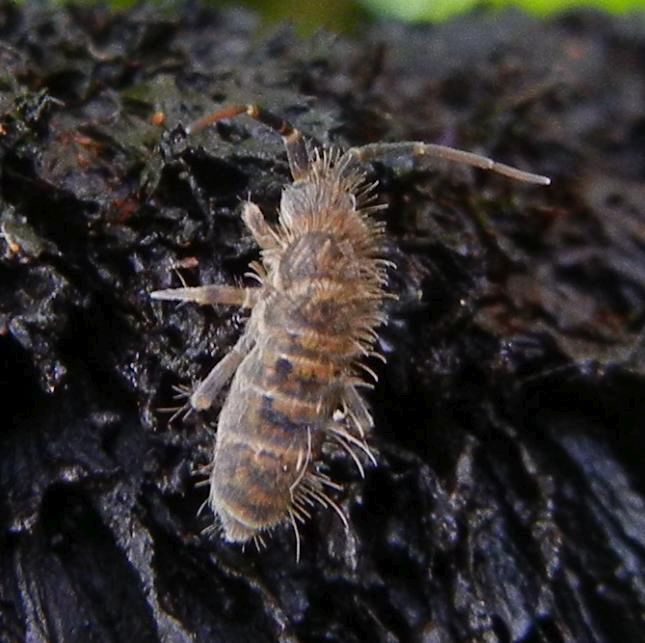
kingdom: Animalia
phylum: Arthropoda
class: Collembola
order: Entomobryomorpha
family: Orchesellidae
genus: Orchesella
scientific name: Orchesella villosa
